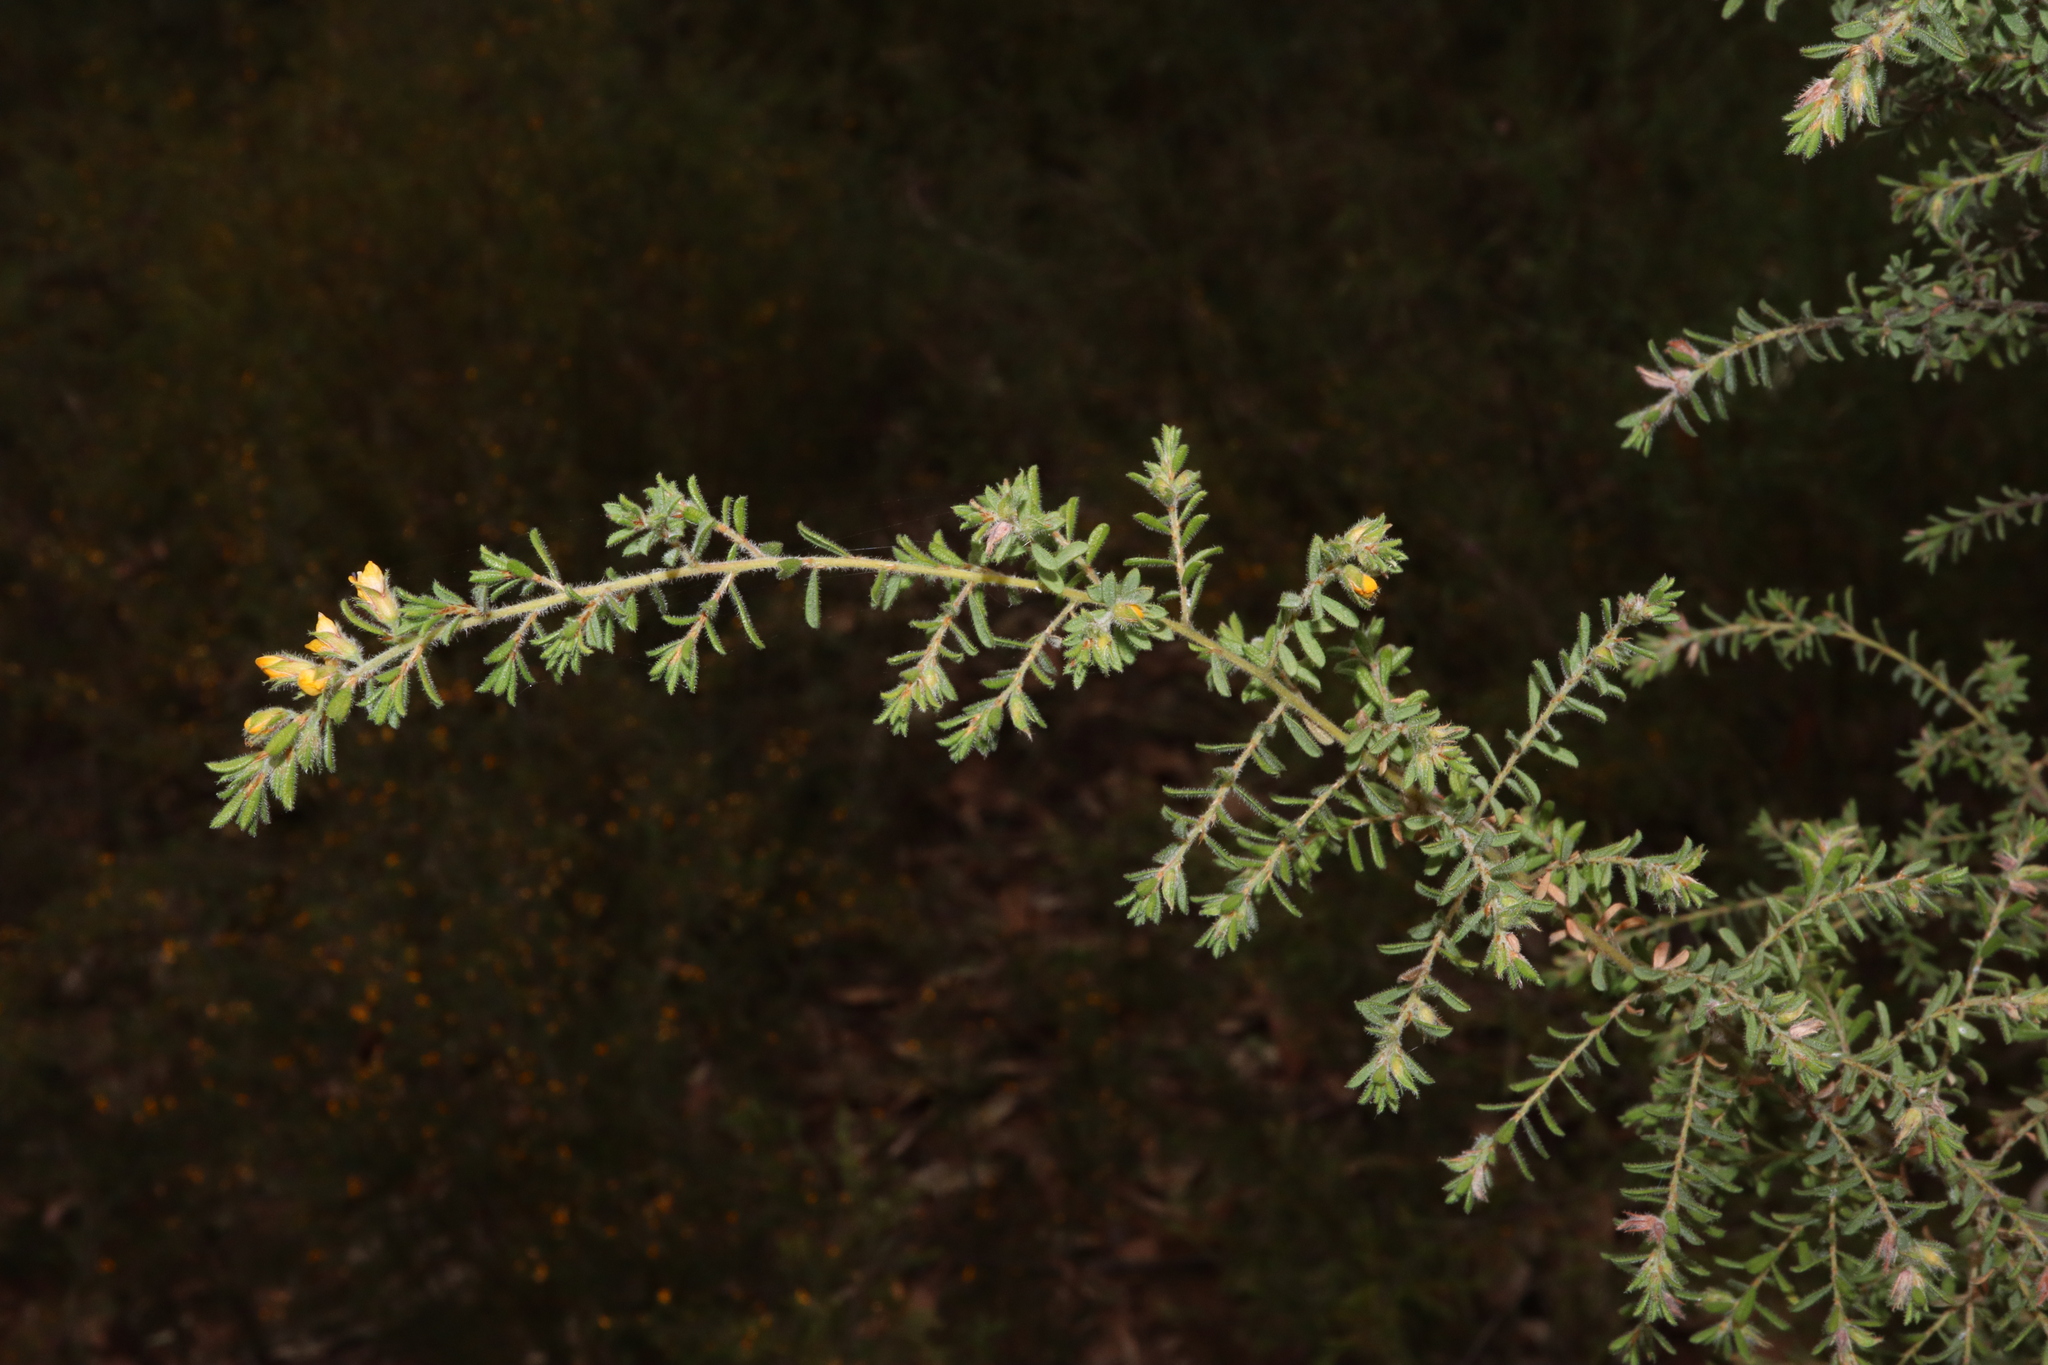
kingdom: Plantae
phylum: Tracheophyta
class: Magnoliopsida
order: Fabales
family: Fabaceae
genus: Pultenaea
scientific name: Pultenaea villosa
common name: Bronze bush-pea
